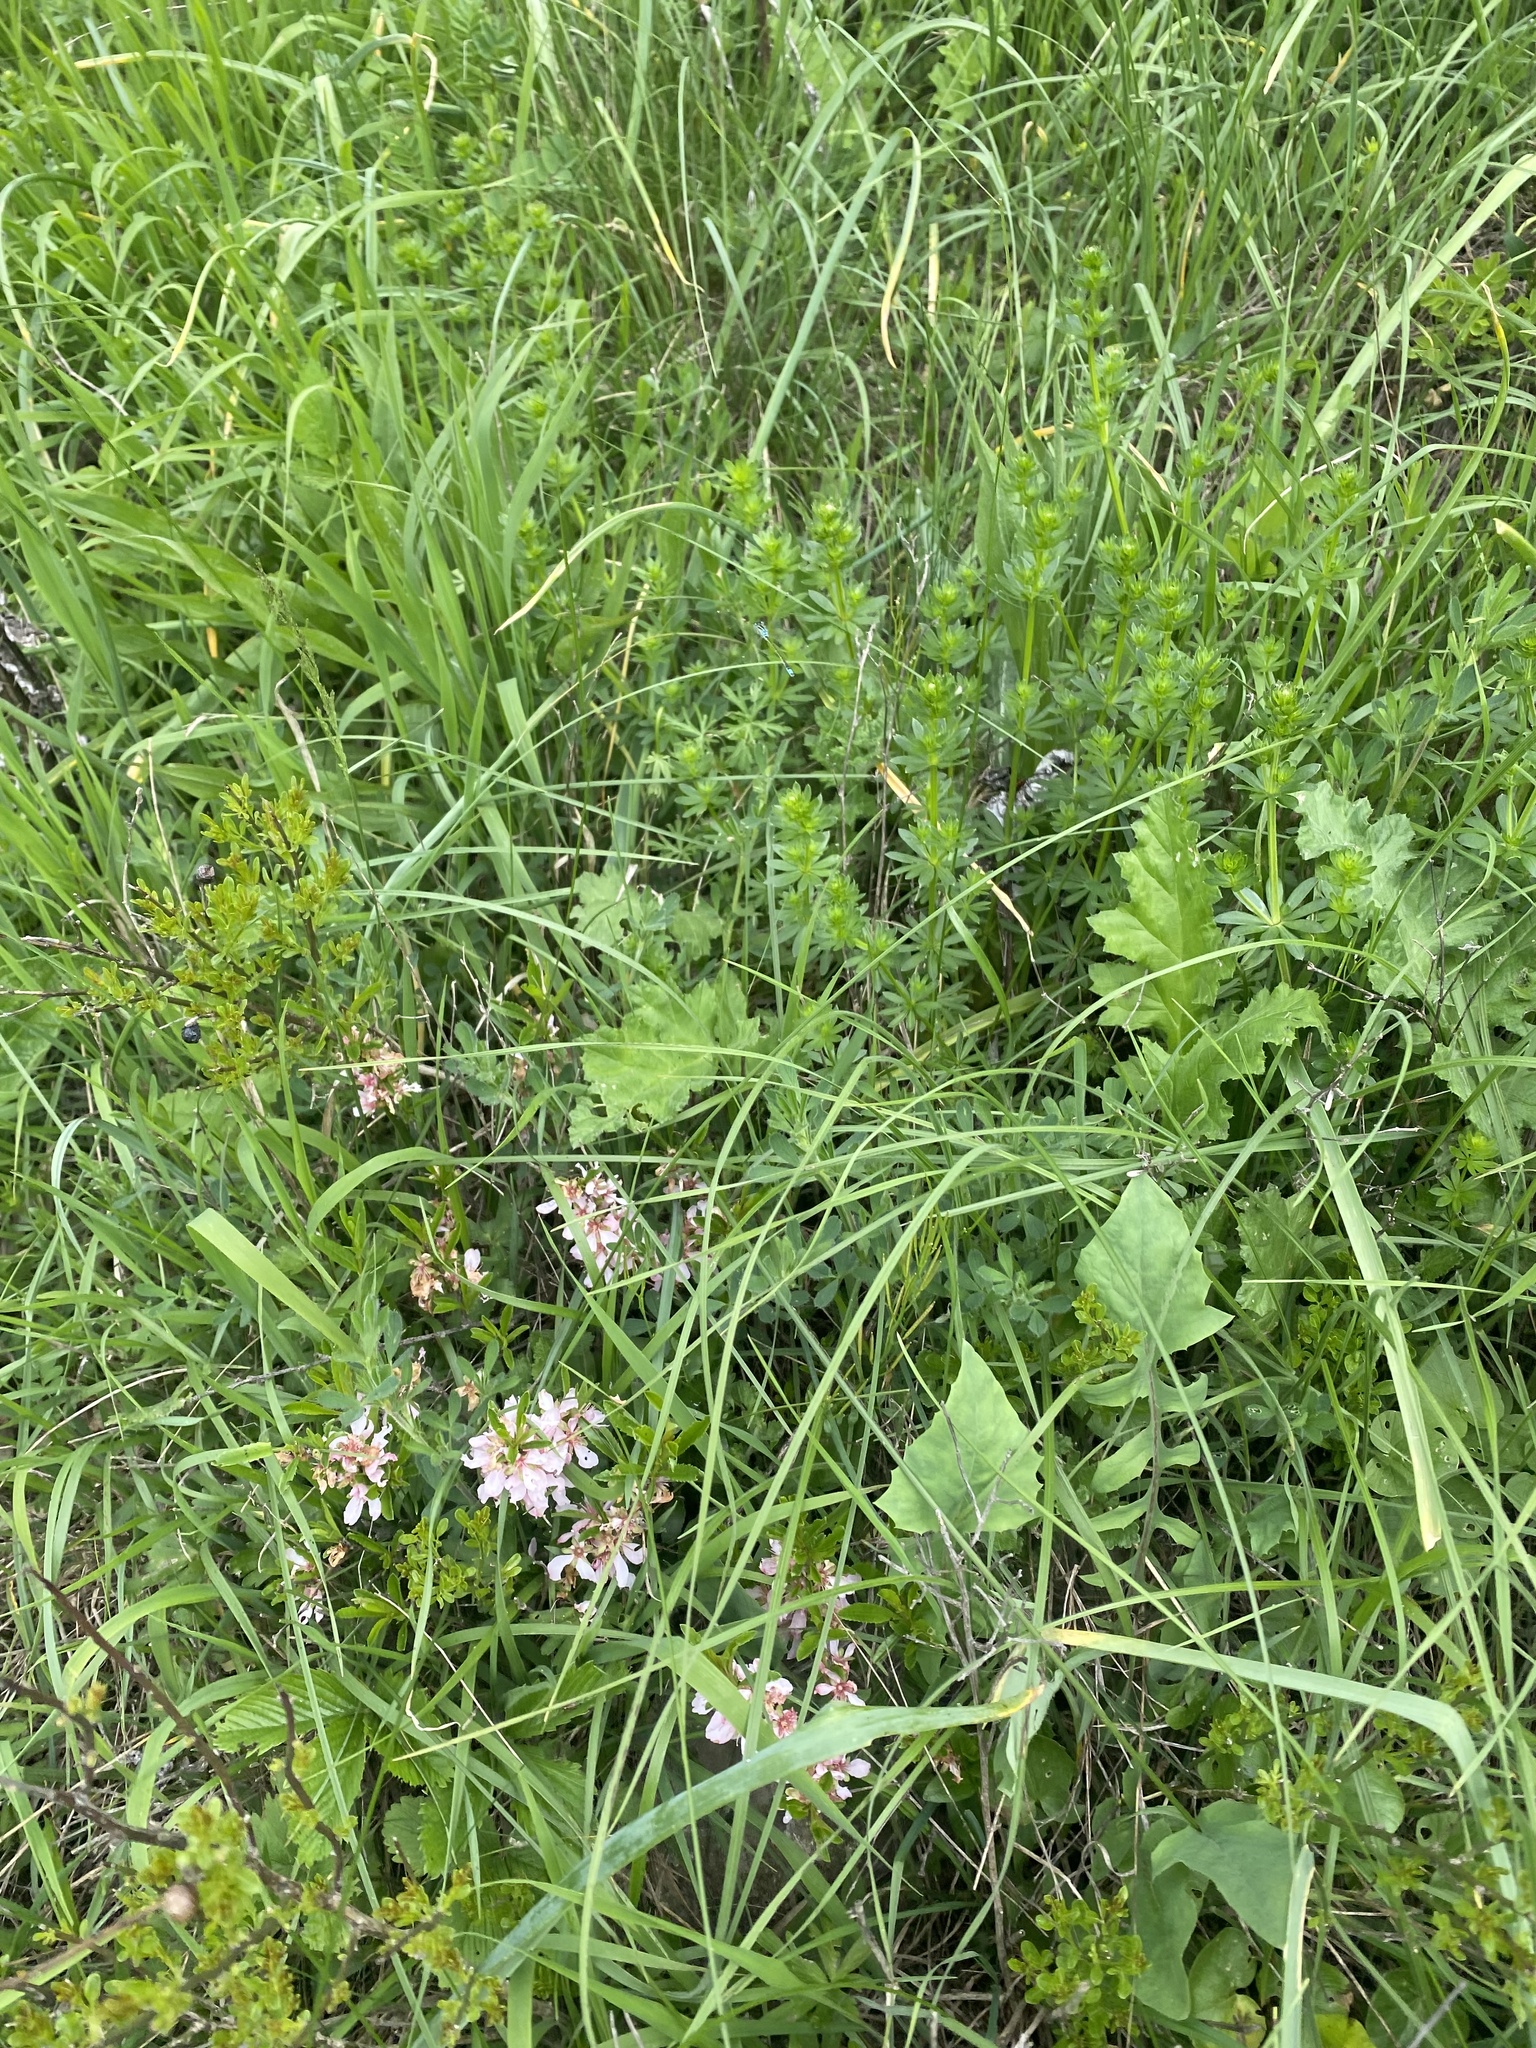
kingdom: Plantae
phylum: Tracheophyta
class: Magnoliopsida
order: Gentianales
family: Rubiaceae
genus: Galium
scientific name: Galium mollugo
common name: Hedge bedstraw
